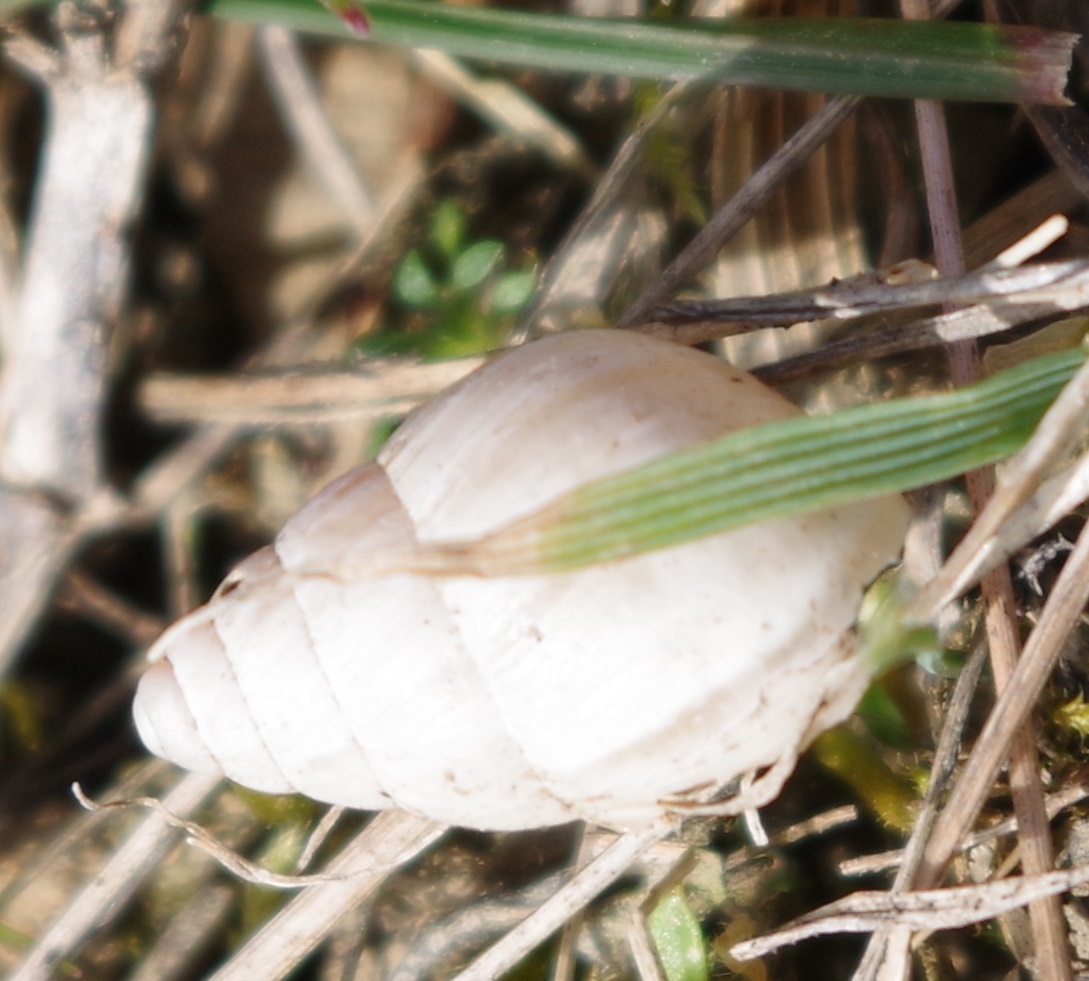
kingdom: Animalia
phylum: Mollusca
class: Gastropoda
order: Stylommatophora
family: Enidae
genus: Zebrina
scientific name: Zebrina detrita
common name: Large bulin
